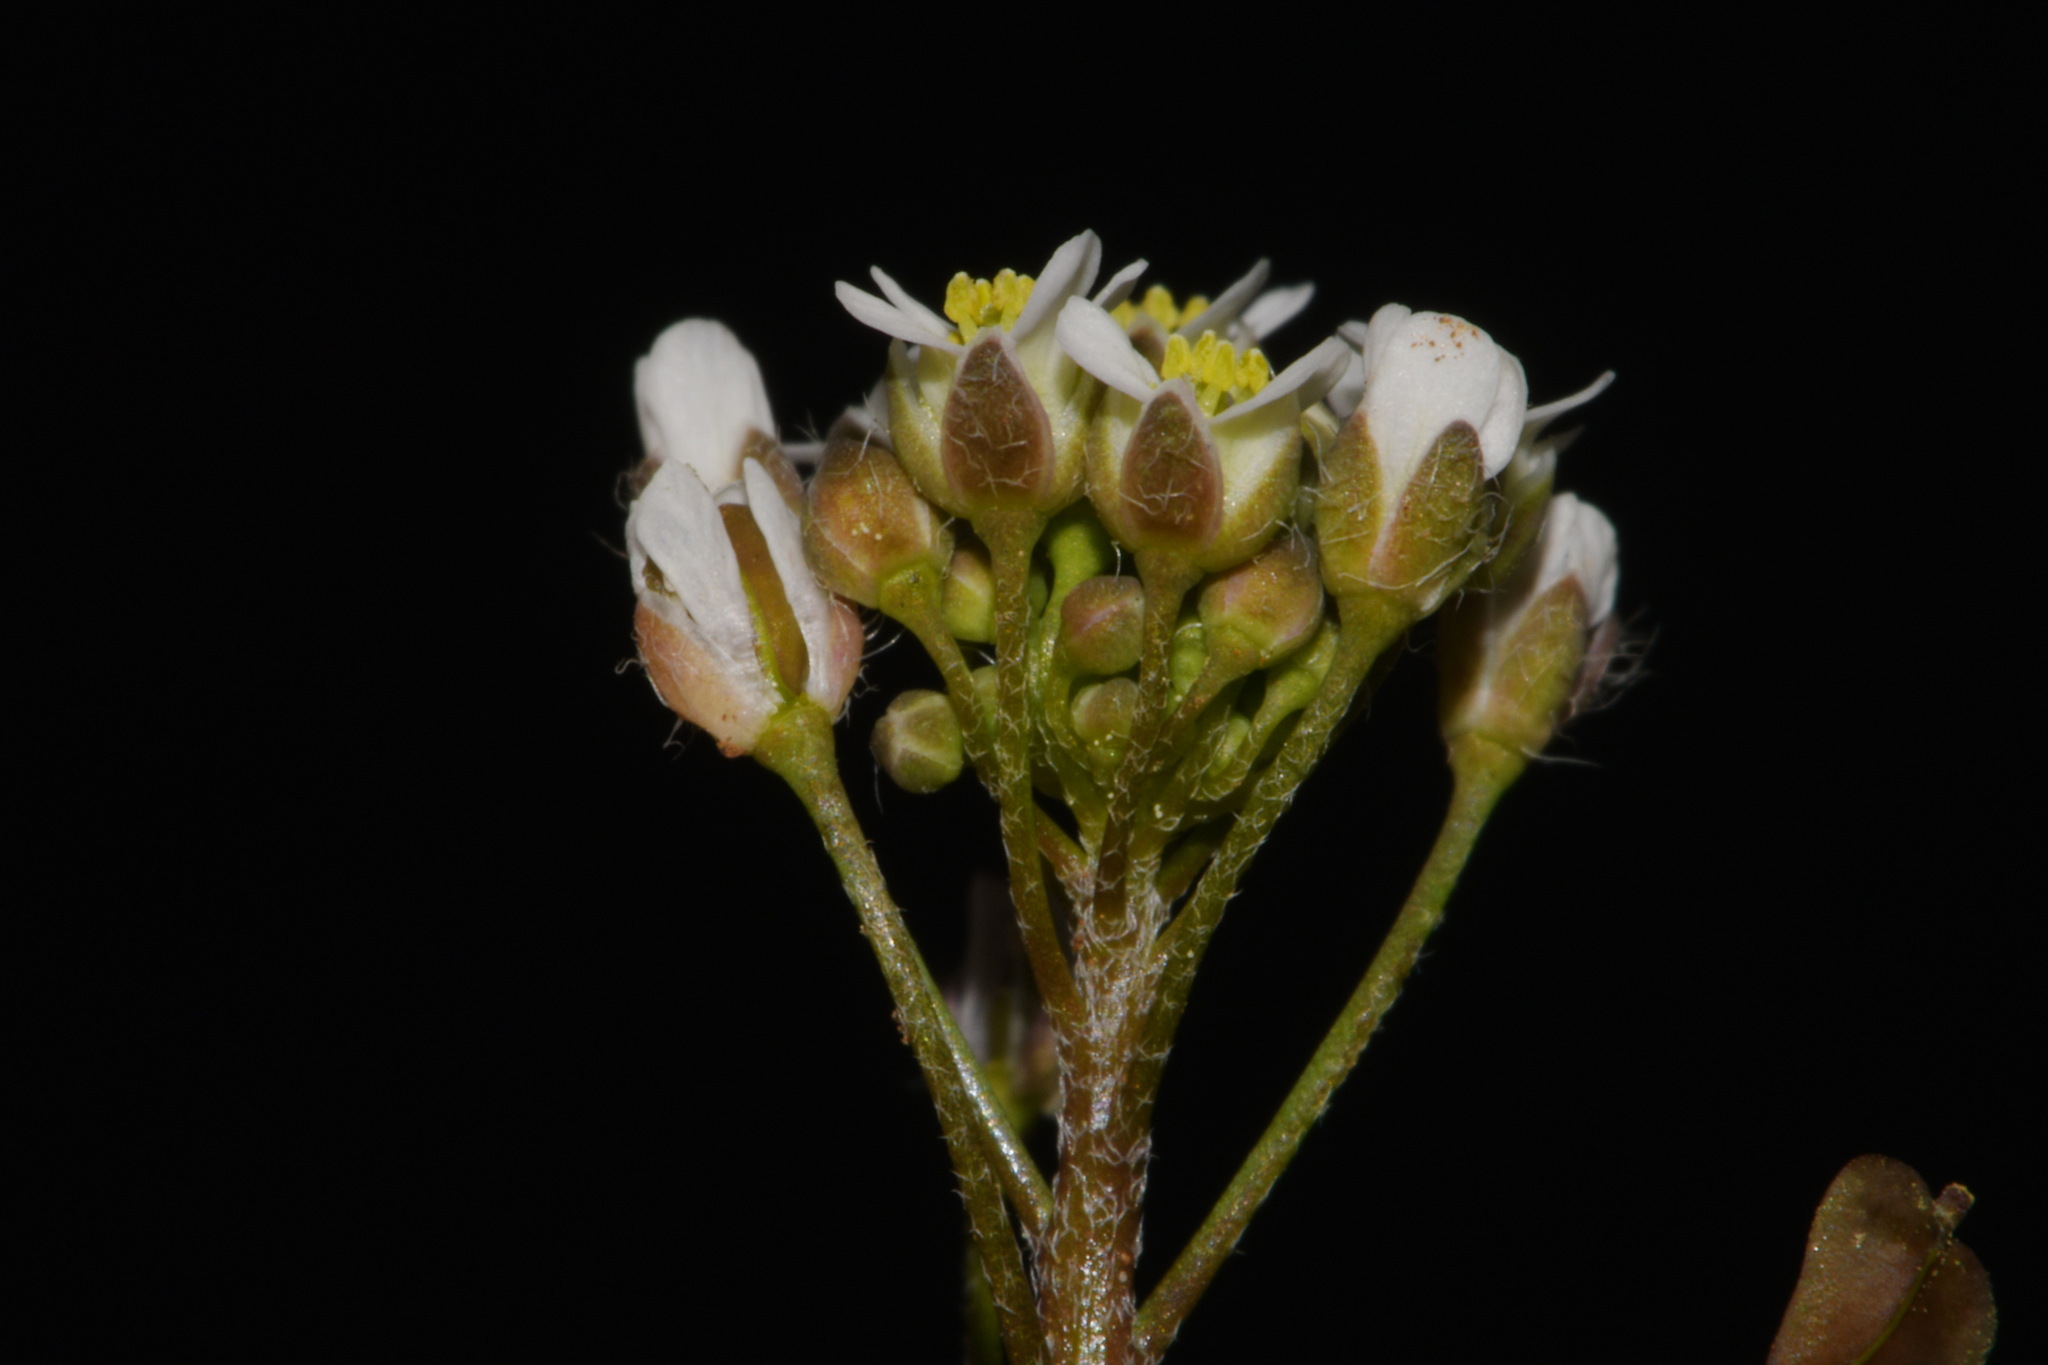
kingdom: Plantae
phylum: Tracheophyta
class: Magnoliopsida
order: Brassicales
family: Brassicaceae
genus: Capsella
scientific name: Capsella bursa-pastoris
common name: Shepherd's purse
